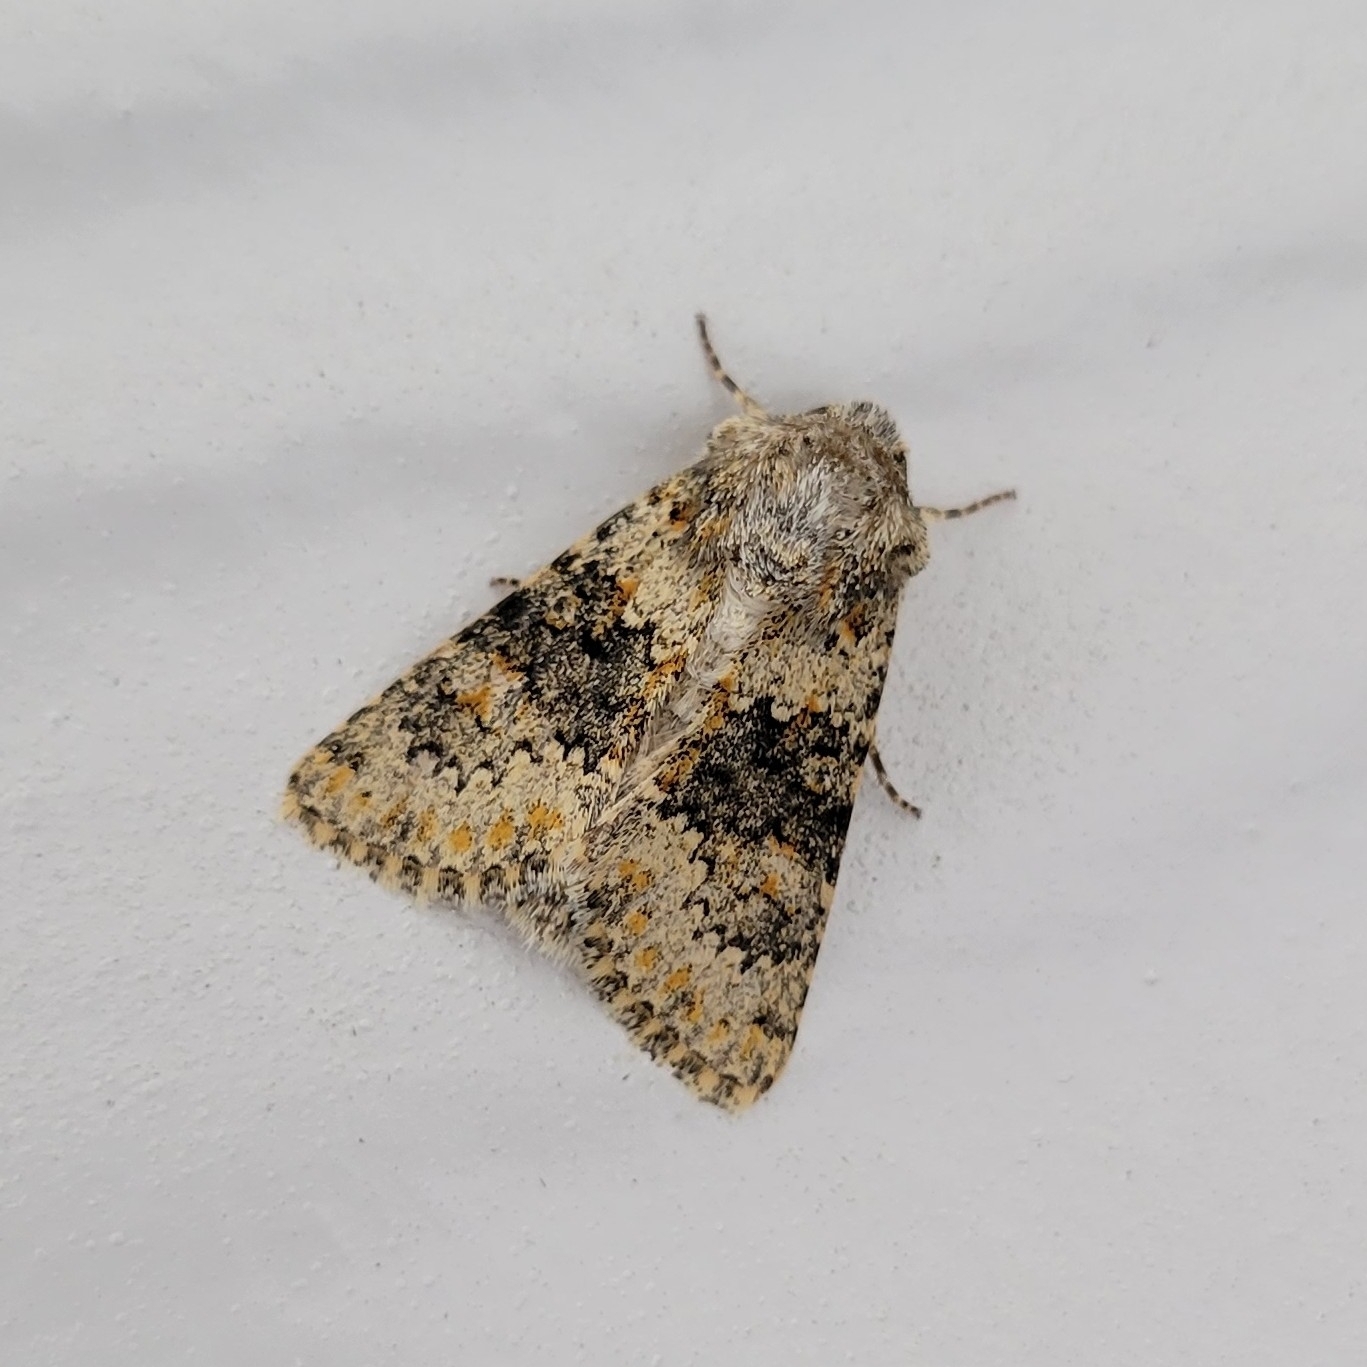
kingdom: Animalia
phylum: Arthropoda
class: Insecta
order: Lepidoptera
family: Noctuidae
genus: Hecatera
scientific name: Hecatera dysodea
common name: Small ranunculus
